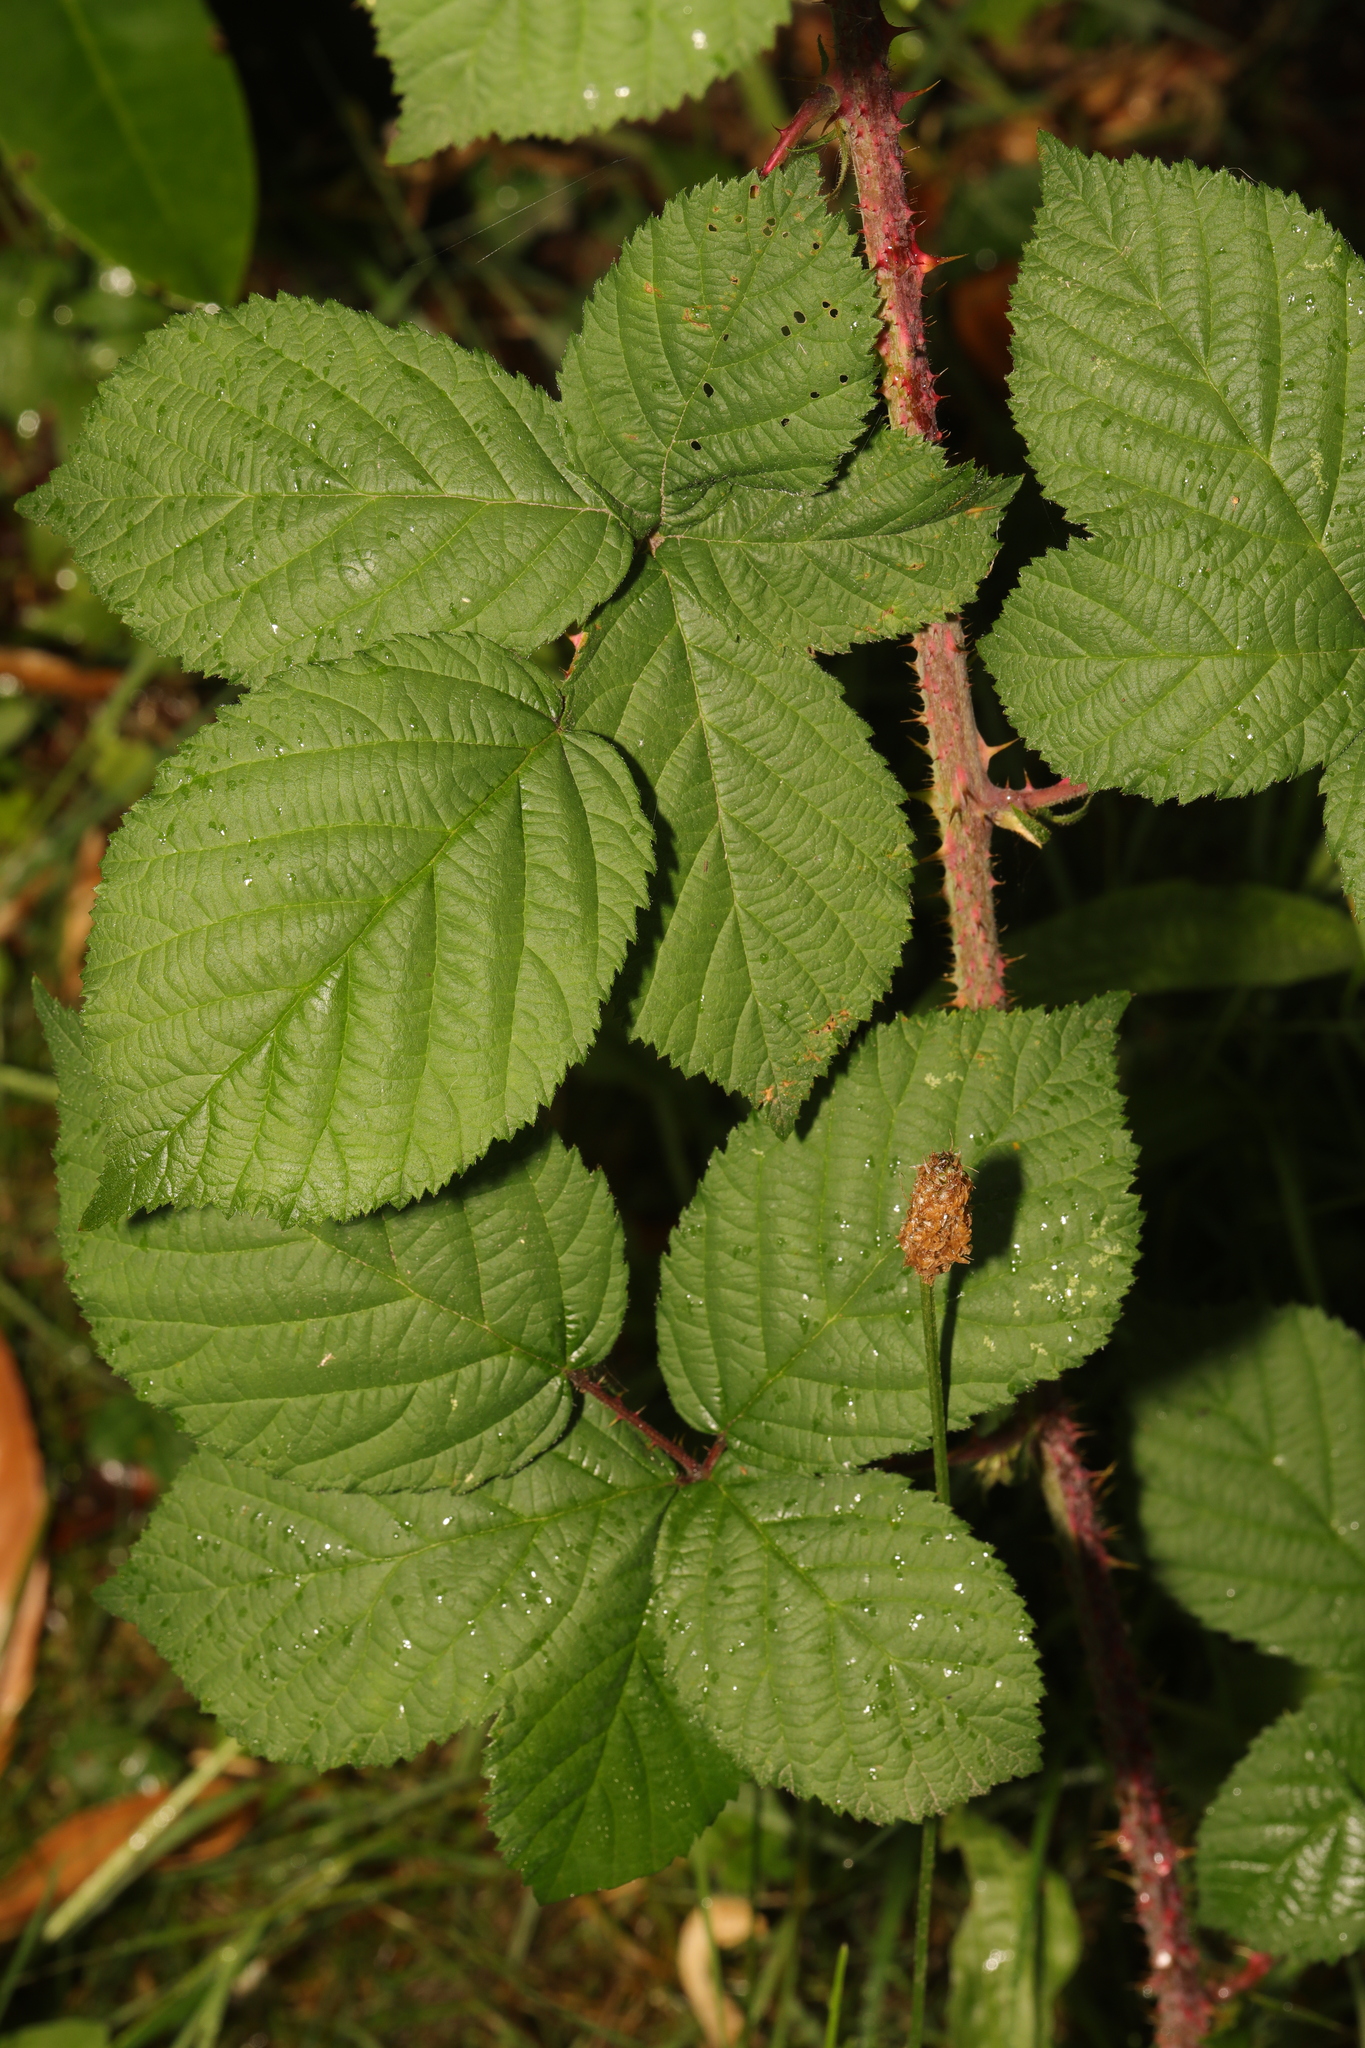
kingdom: Plantae
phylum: Tracheophyta
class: Magnoliopsida
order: Rosales
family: Rosaceae
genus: Rubus
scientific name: Rubus horrefactus
